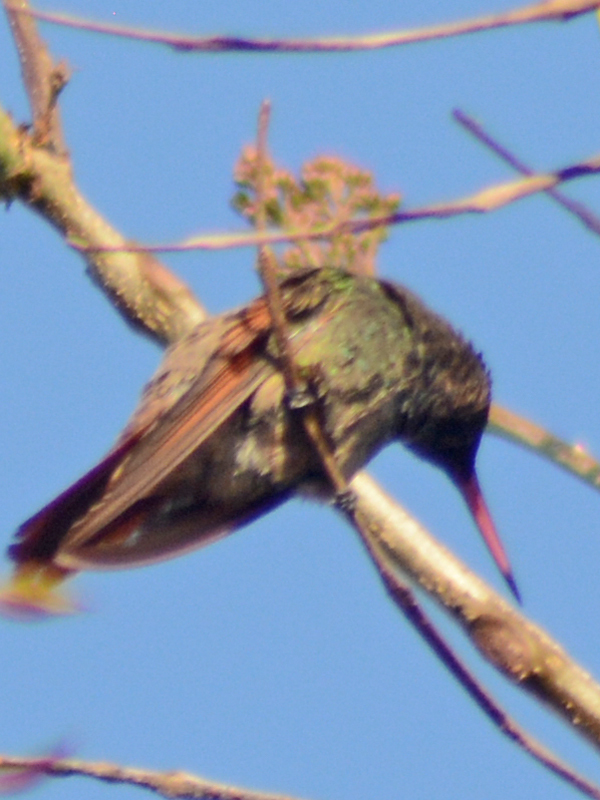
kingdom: Animalia
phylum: Chordata
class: Aves
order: Apodiformes
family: Trochilidae
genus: Saucerottia
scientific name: Saucerottia beryllina
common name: Berylline hummingbird
